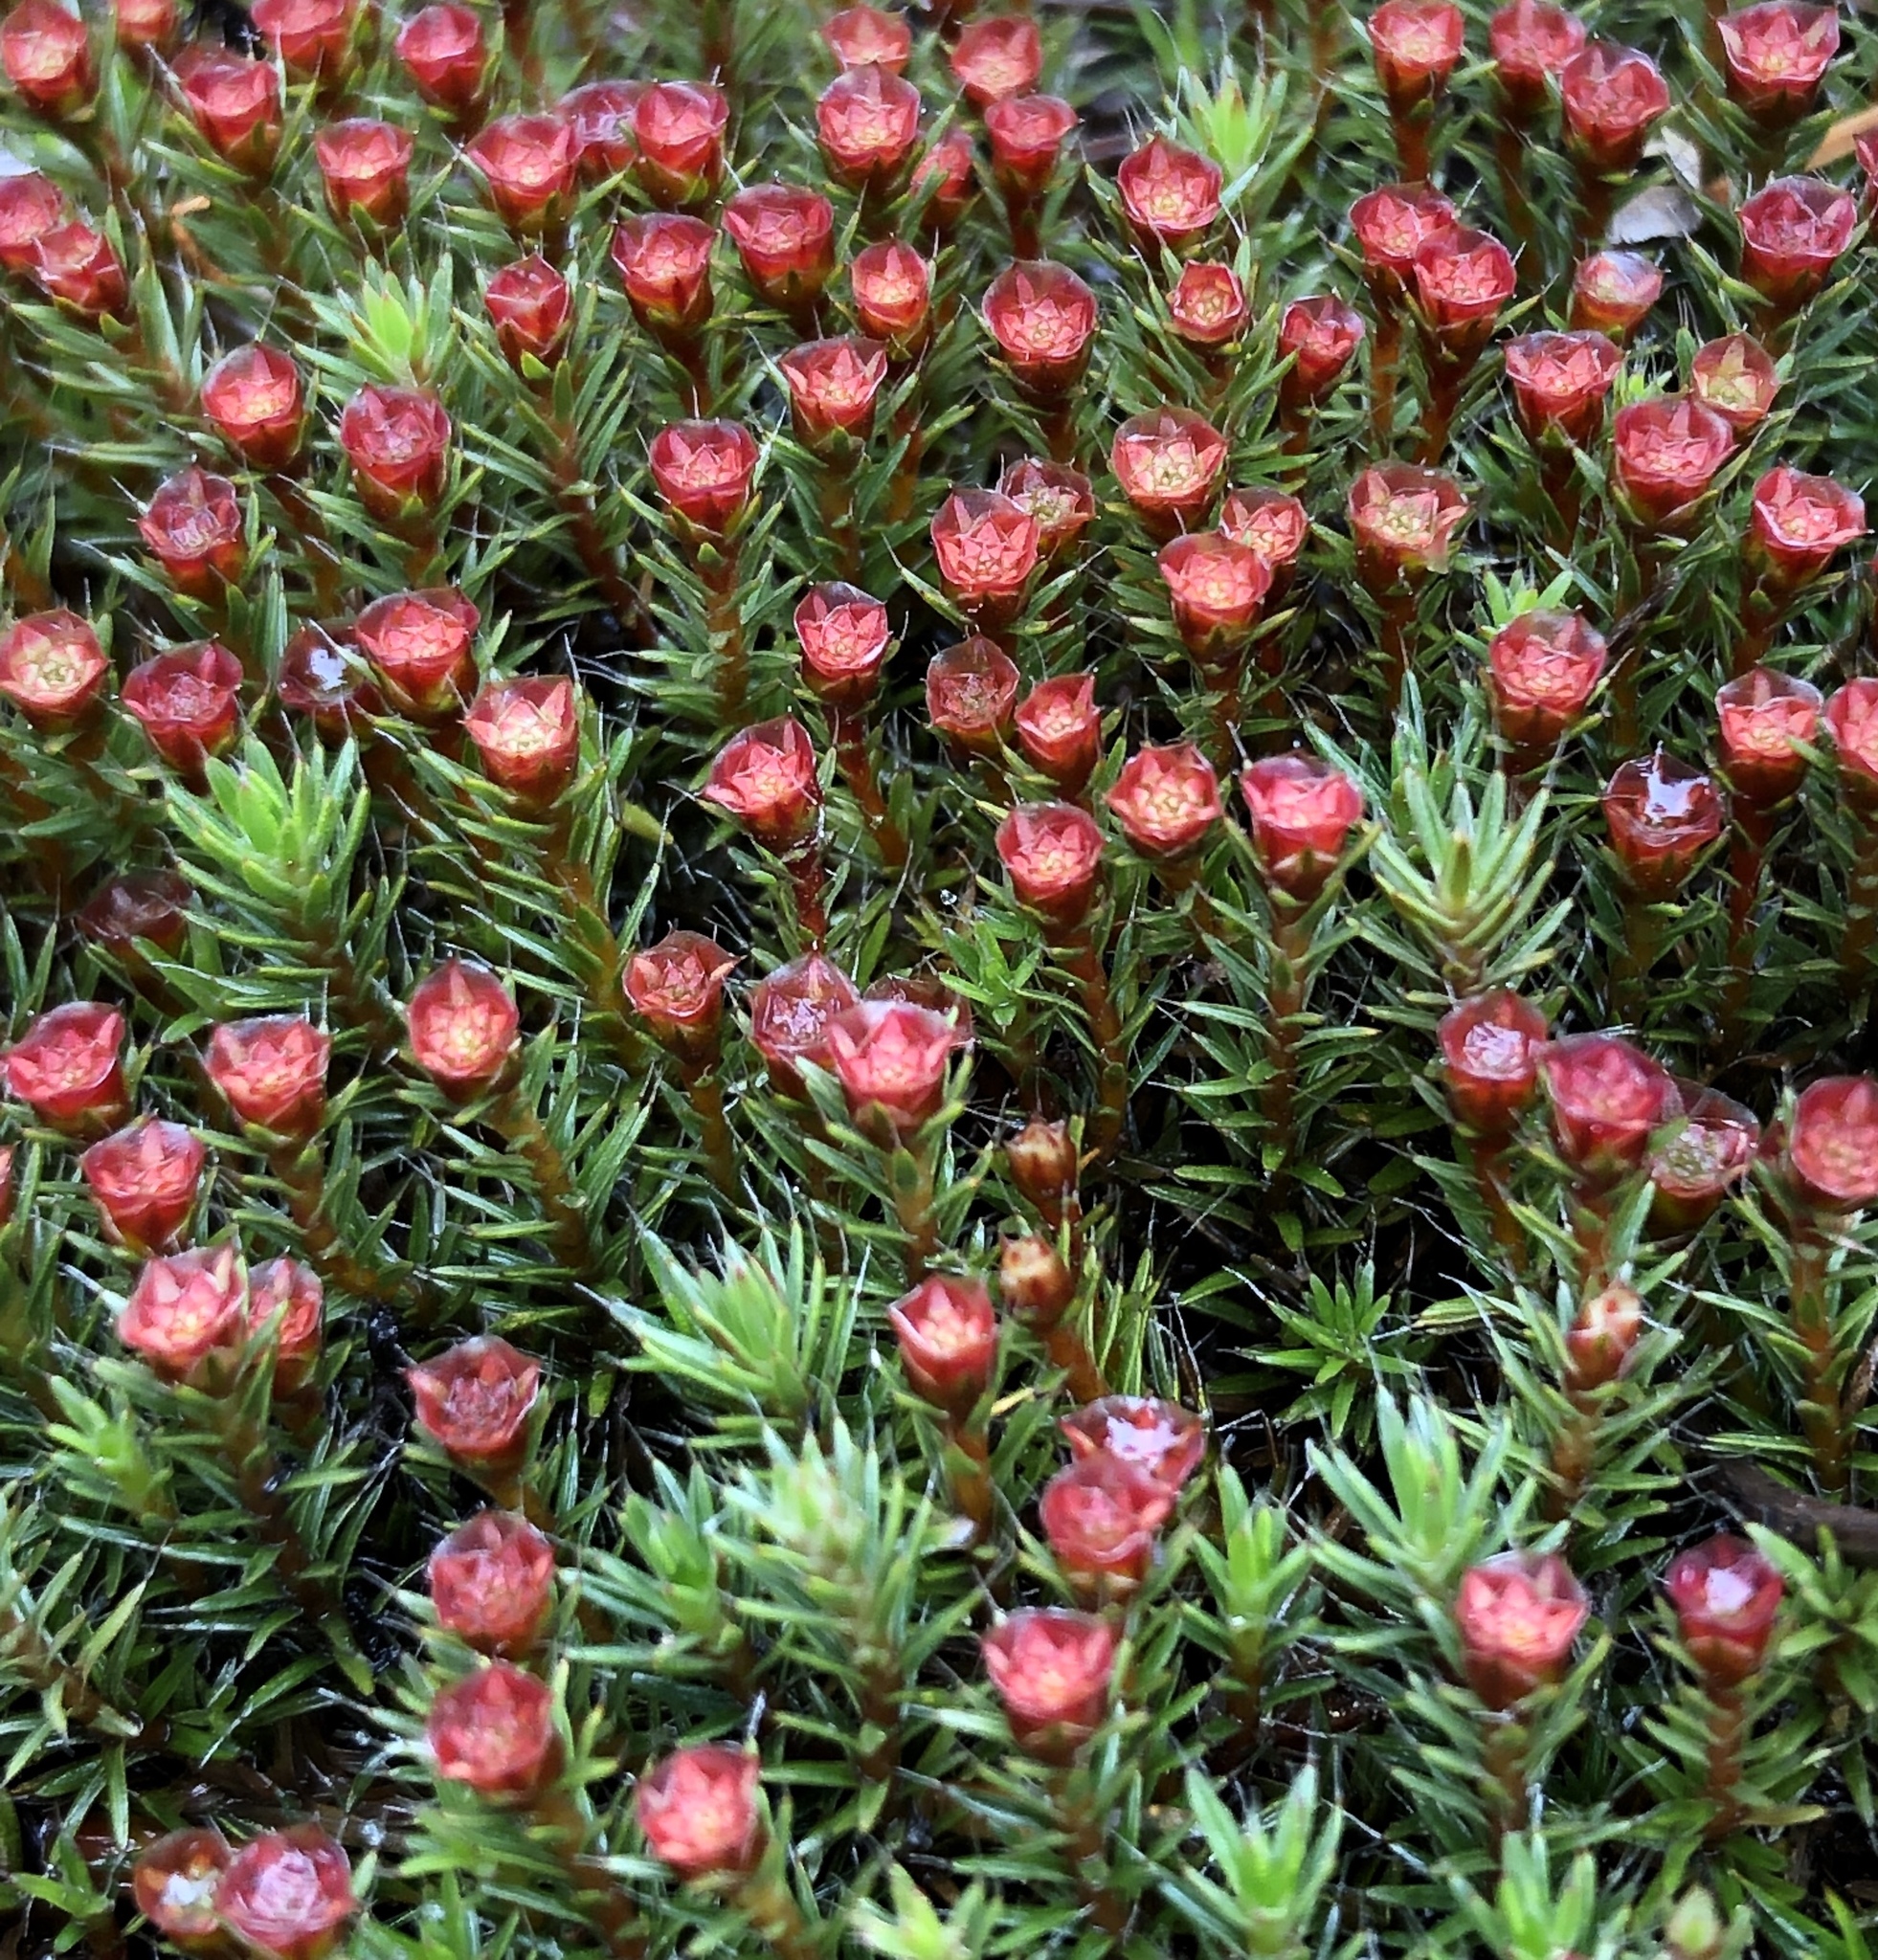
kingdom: Plantae
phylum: Bryophyta
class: Polytrichopsida
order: Polytrichales
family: Polytrichaceae
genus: Polytrichum
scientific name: Polytrichum piliferum
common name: Bristly haircap
